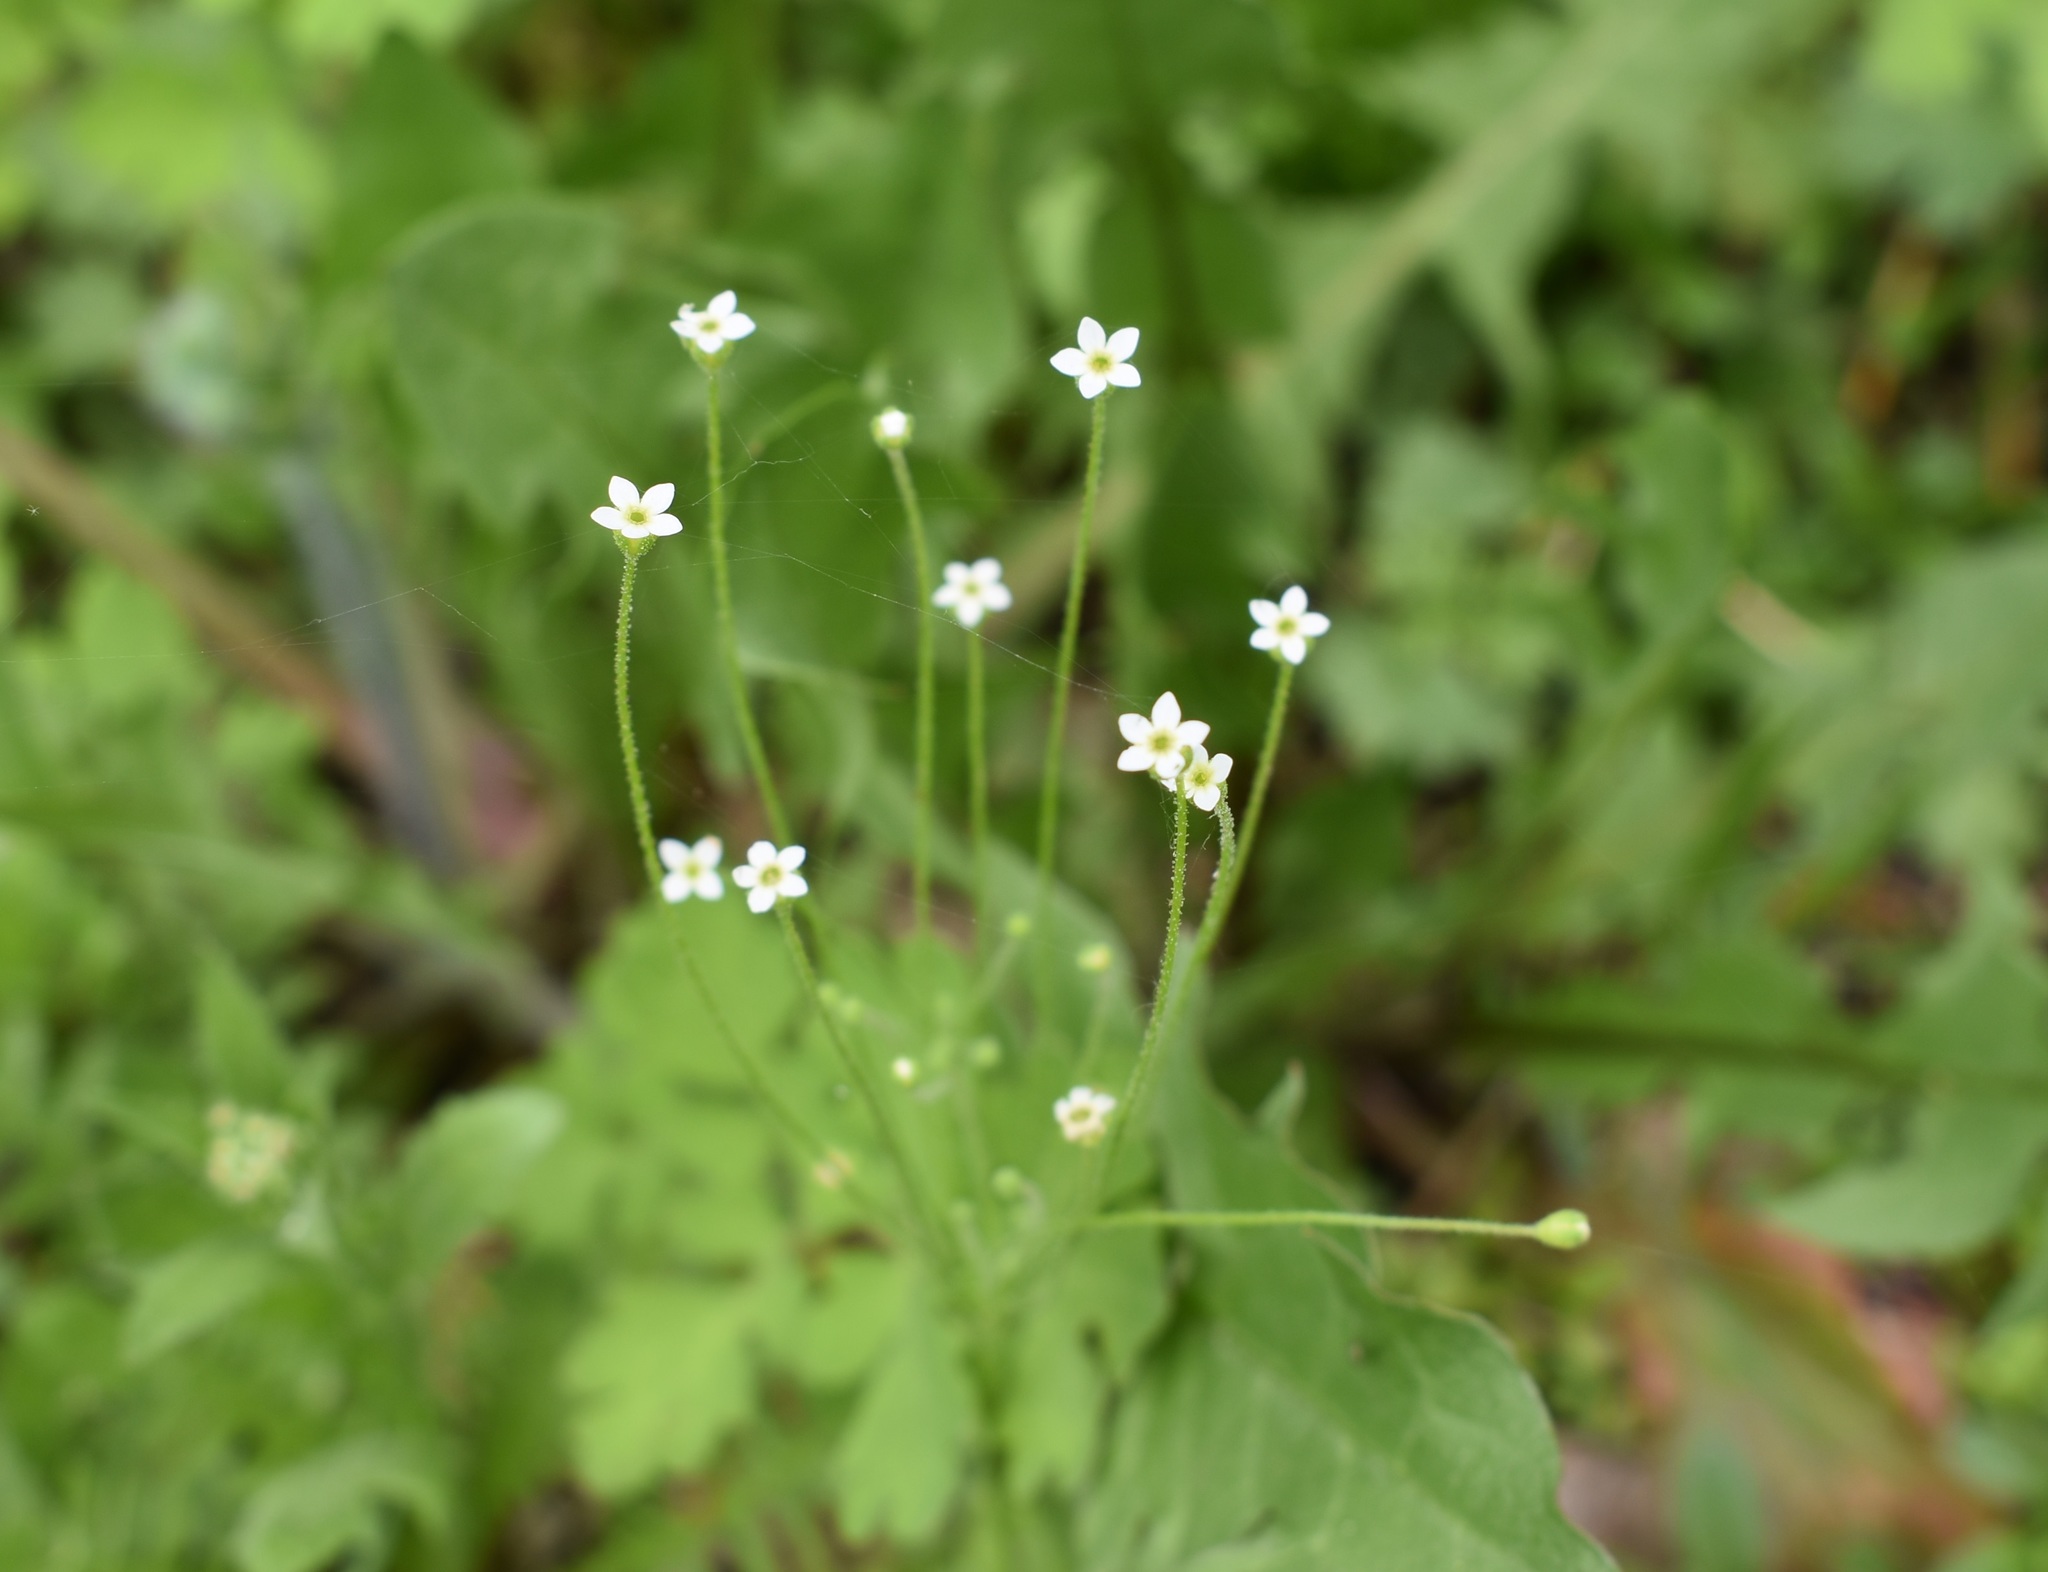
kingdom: Plantae
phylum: Tracheophyta
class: Magnoliopsida
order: Ericales
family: Primulaceae
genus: Androsace
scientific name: Androsace filiformis
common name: Filiform rock jasmine
